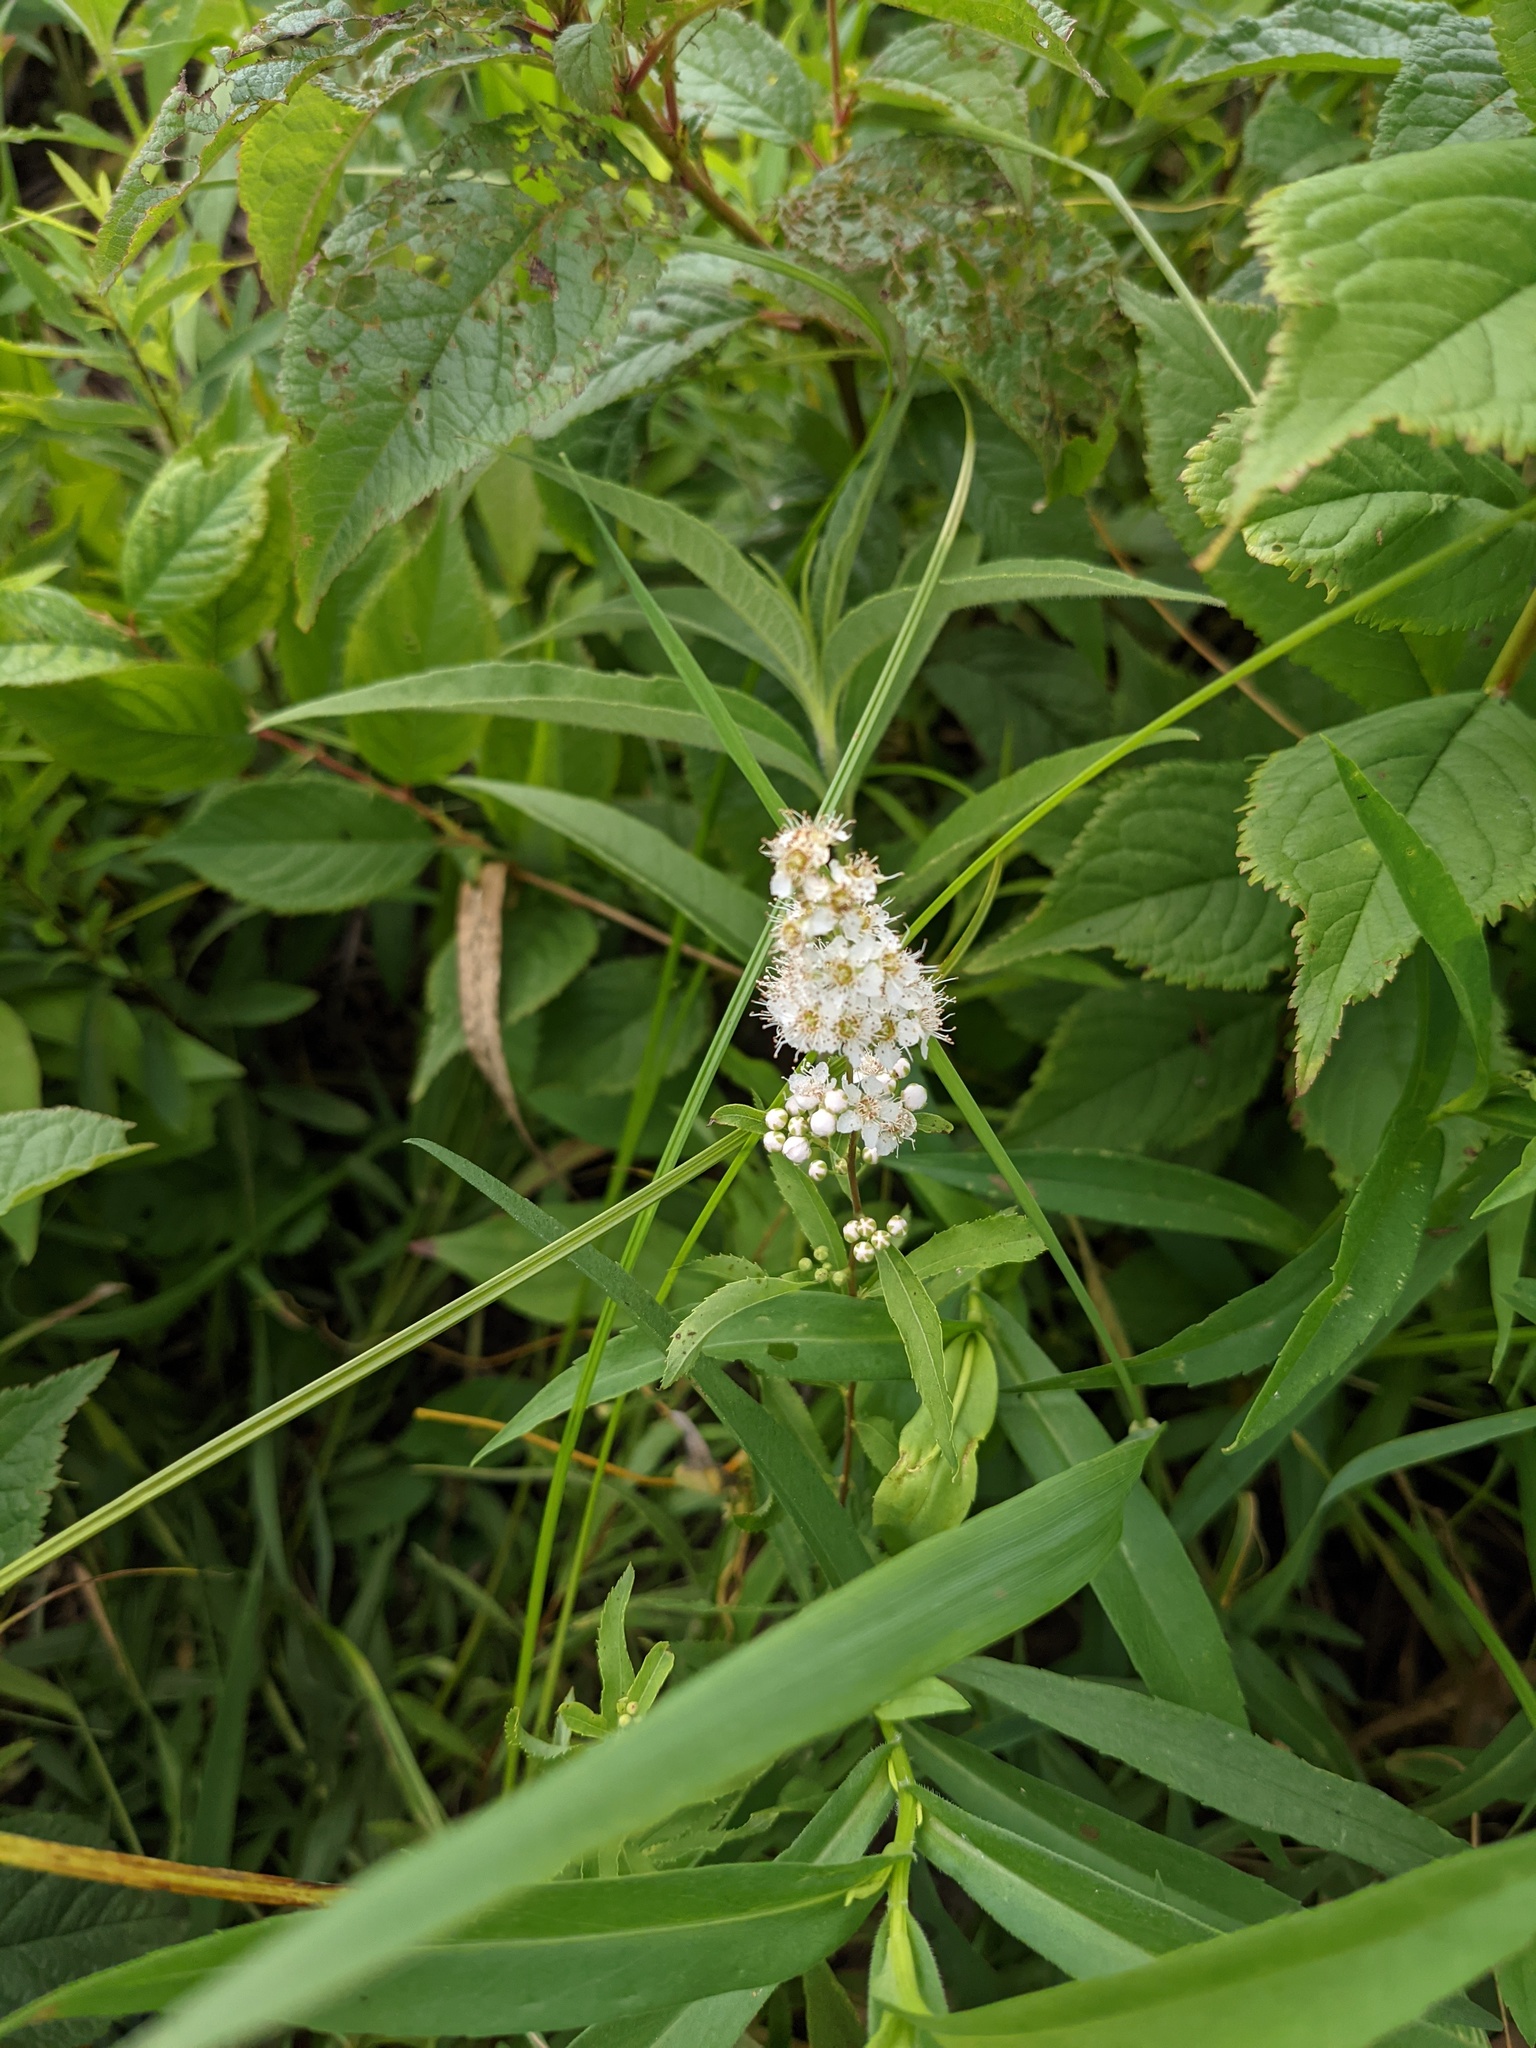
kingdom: Plantae
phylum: Tracheophyta
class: Magnoliopsida
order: Rosales
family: Rosaceae
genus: Spiraea
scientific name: Spiraea alba
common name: Pale bridewort
